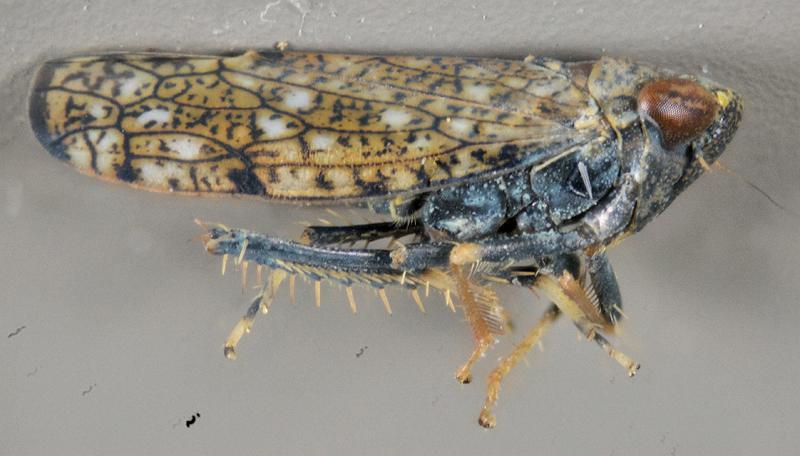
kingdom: Animalia
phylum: Arthropoda
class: Insecta
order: Hemiptera
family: Cicadellidae
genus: Orientus
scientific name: Orientus ishidae
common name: Japanese leafhopper
